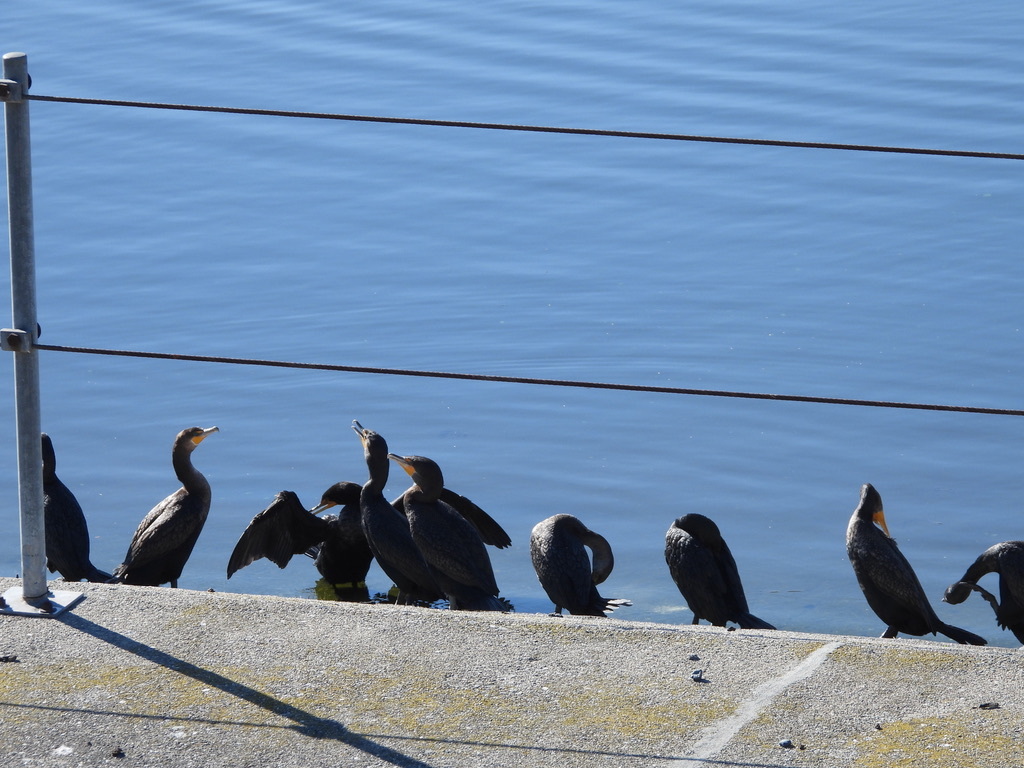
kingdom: Animalia
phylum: Chordata
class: Aves
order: Suliformes
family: Phalacrocoracidae
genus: Phalacrocorax
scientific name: Phalacrocorax auritus
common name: Double-crested cormorant
